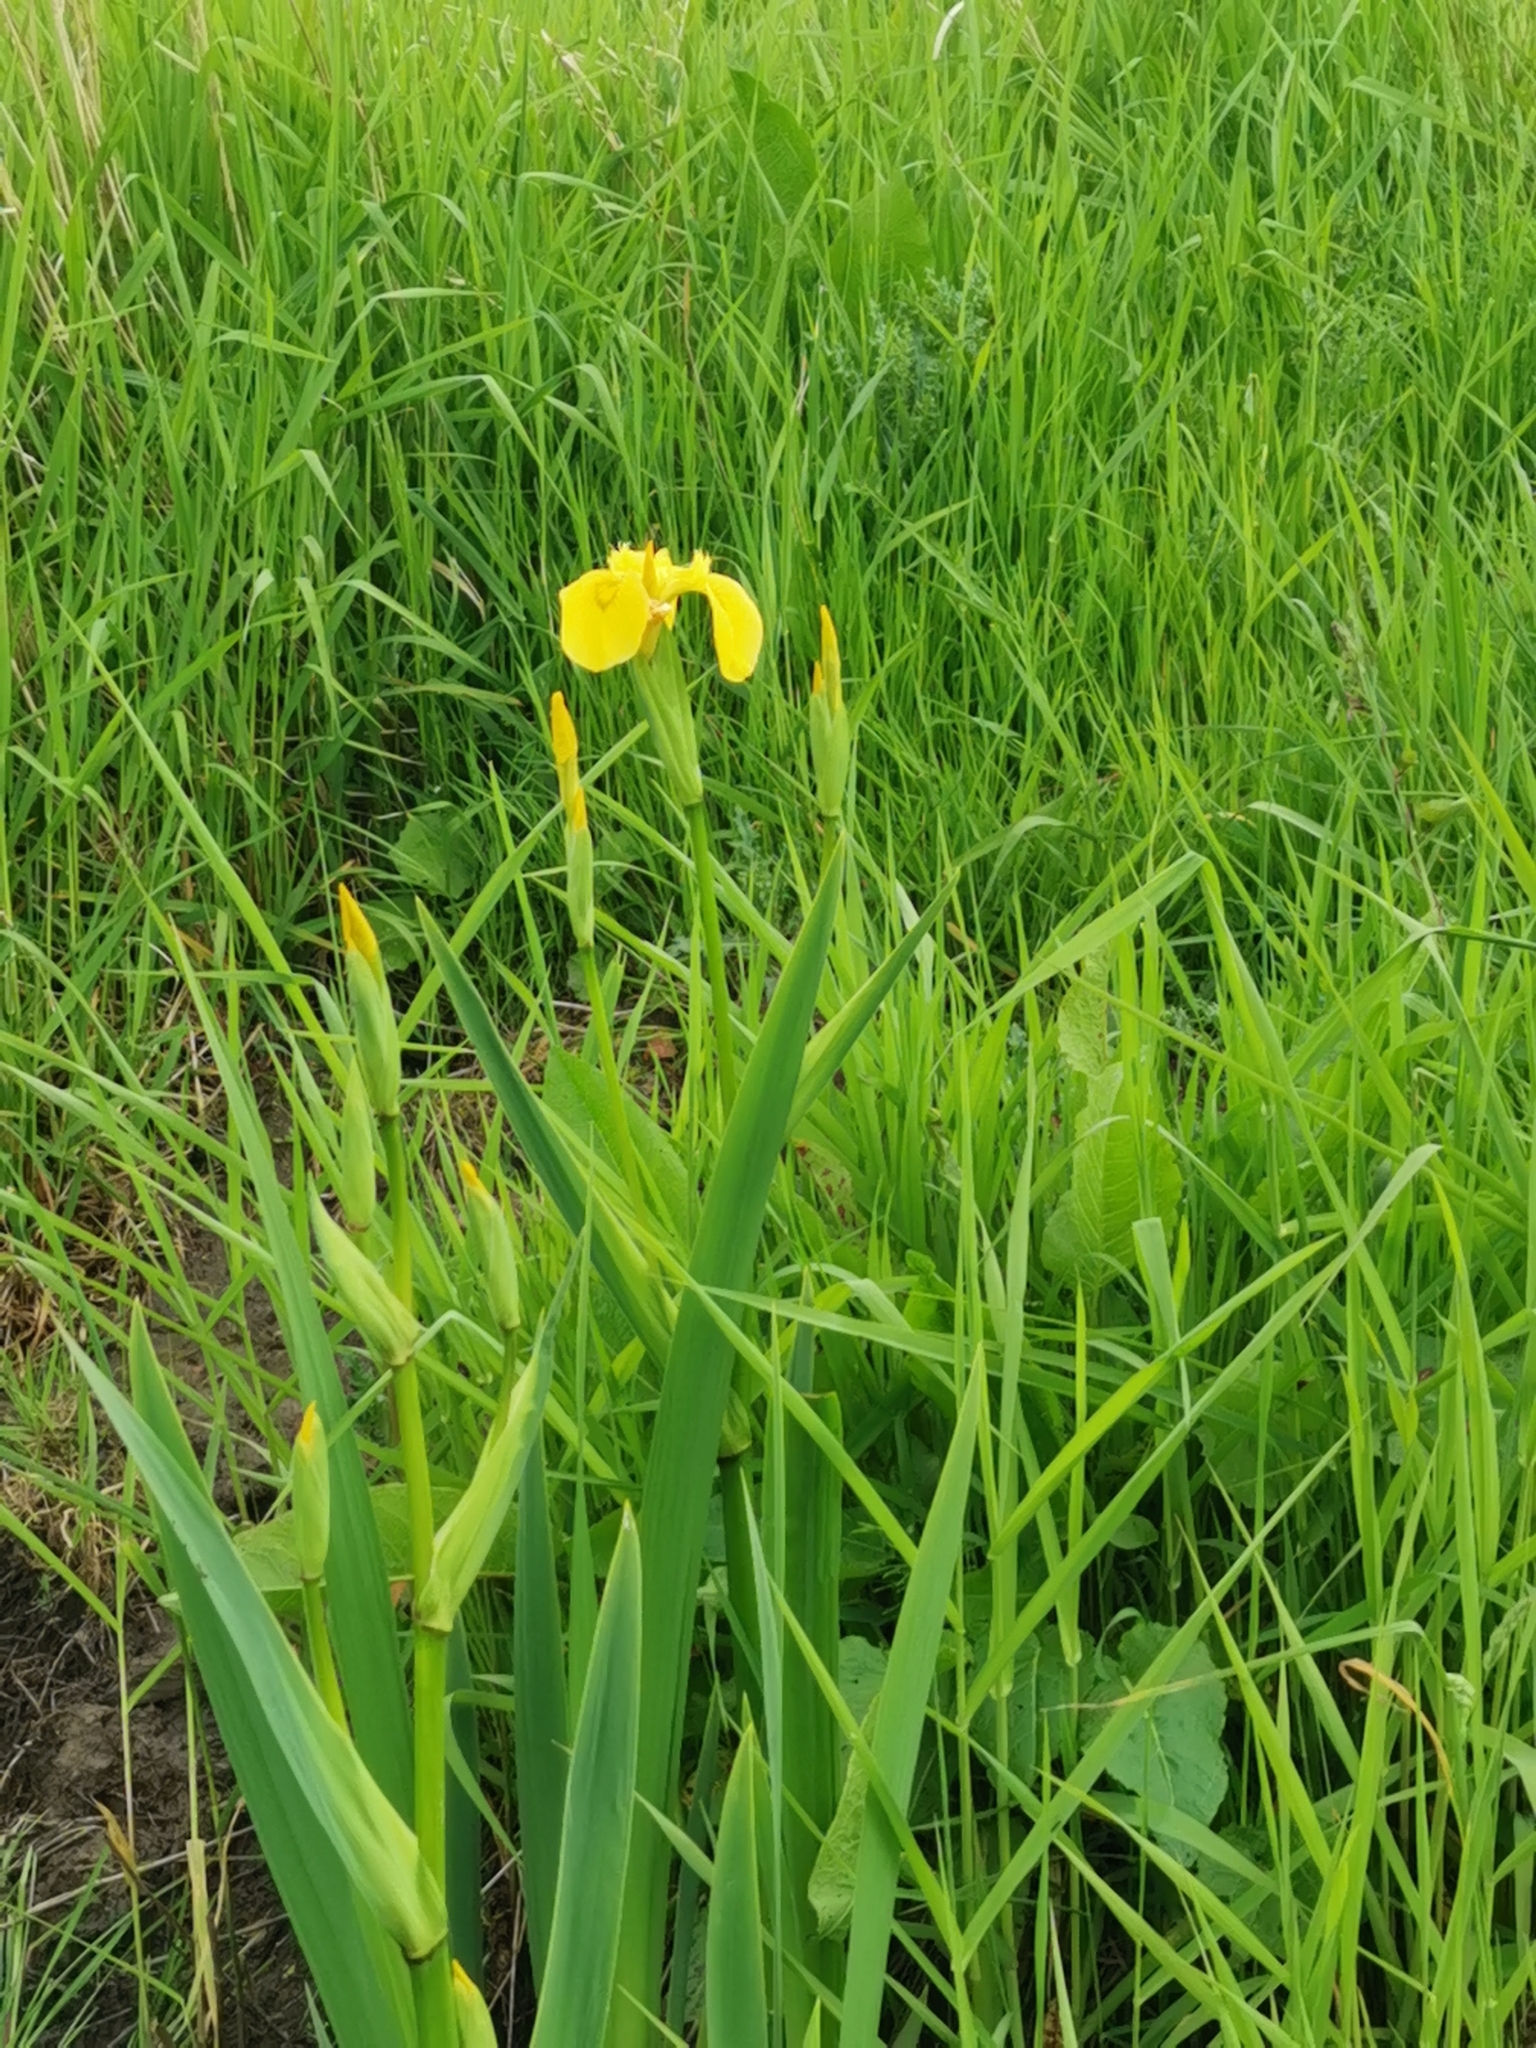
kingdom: Plantae
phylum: Tracheophyta
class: Liliopsida
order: Asparagales
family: Iridaceae
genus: Iris
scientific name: Iris pseudacorus
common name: Yellow flag
